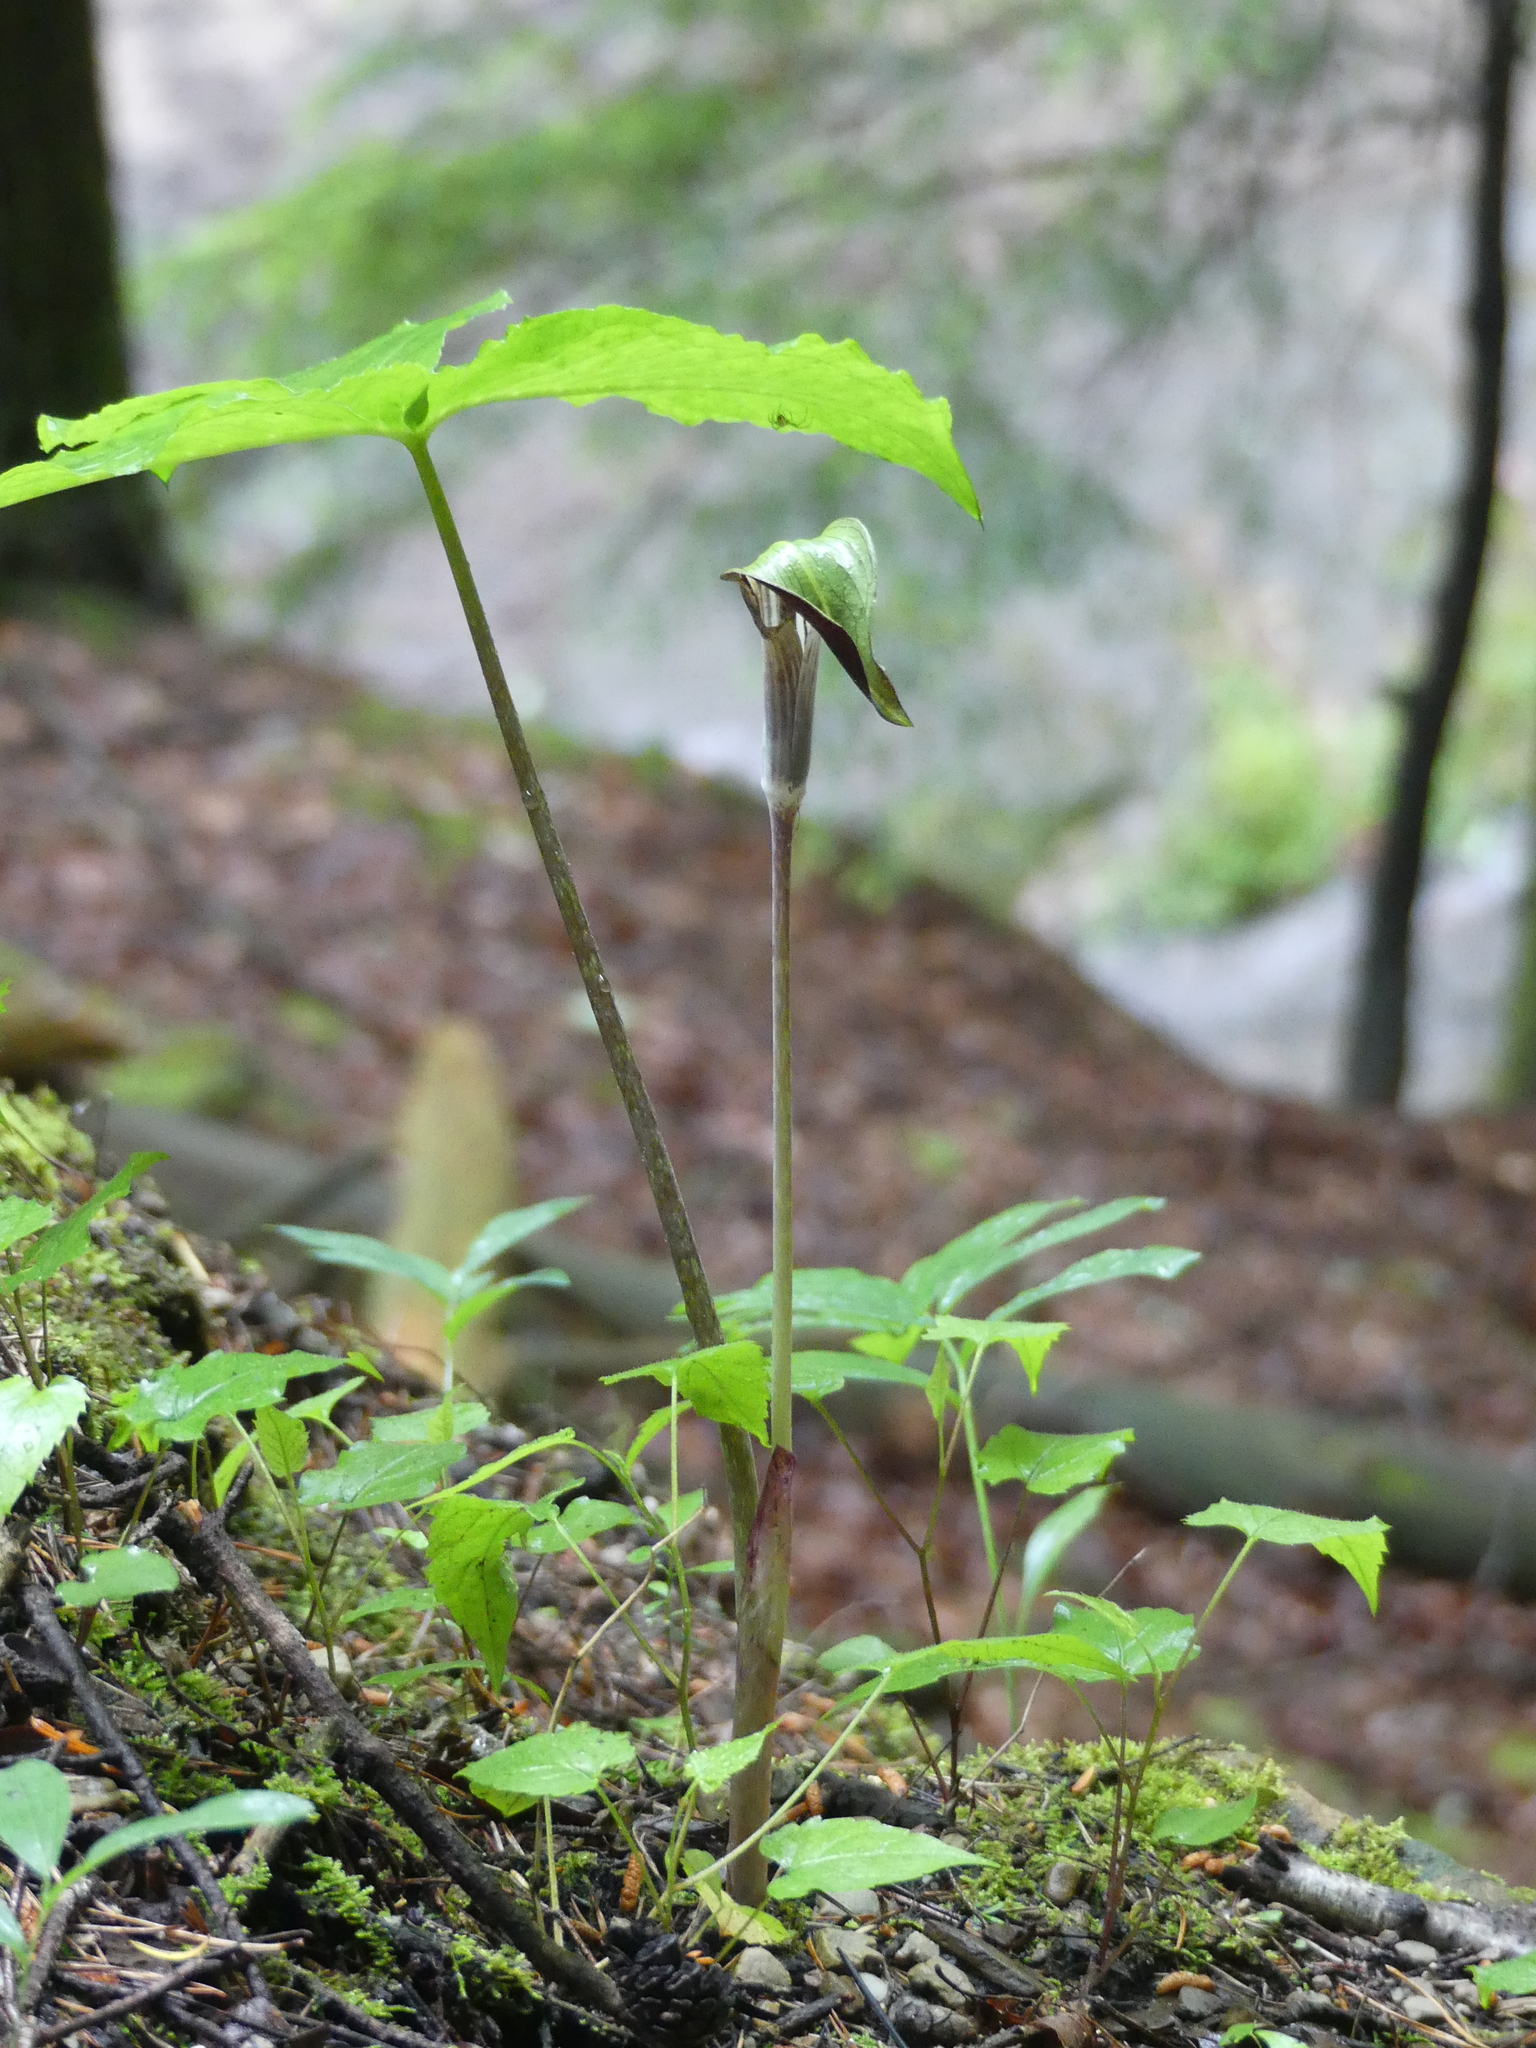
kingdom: Plantae
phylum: Tracheophyta
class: Liliopsida
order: Alismatales
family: Araceae
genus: Arisaema
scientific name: Arisaema triphyllum
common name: Jack-in-the-pulpit
